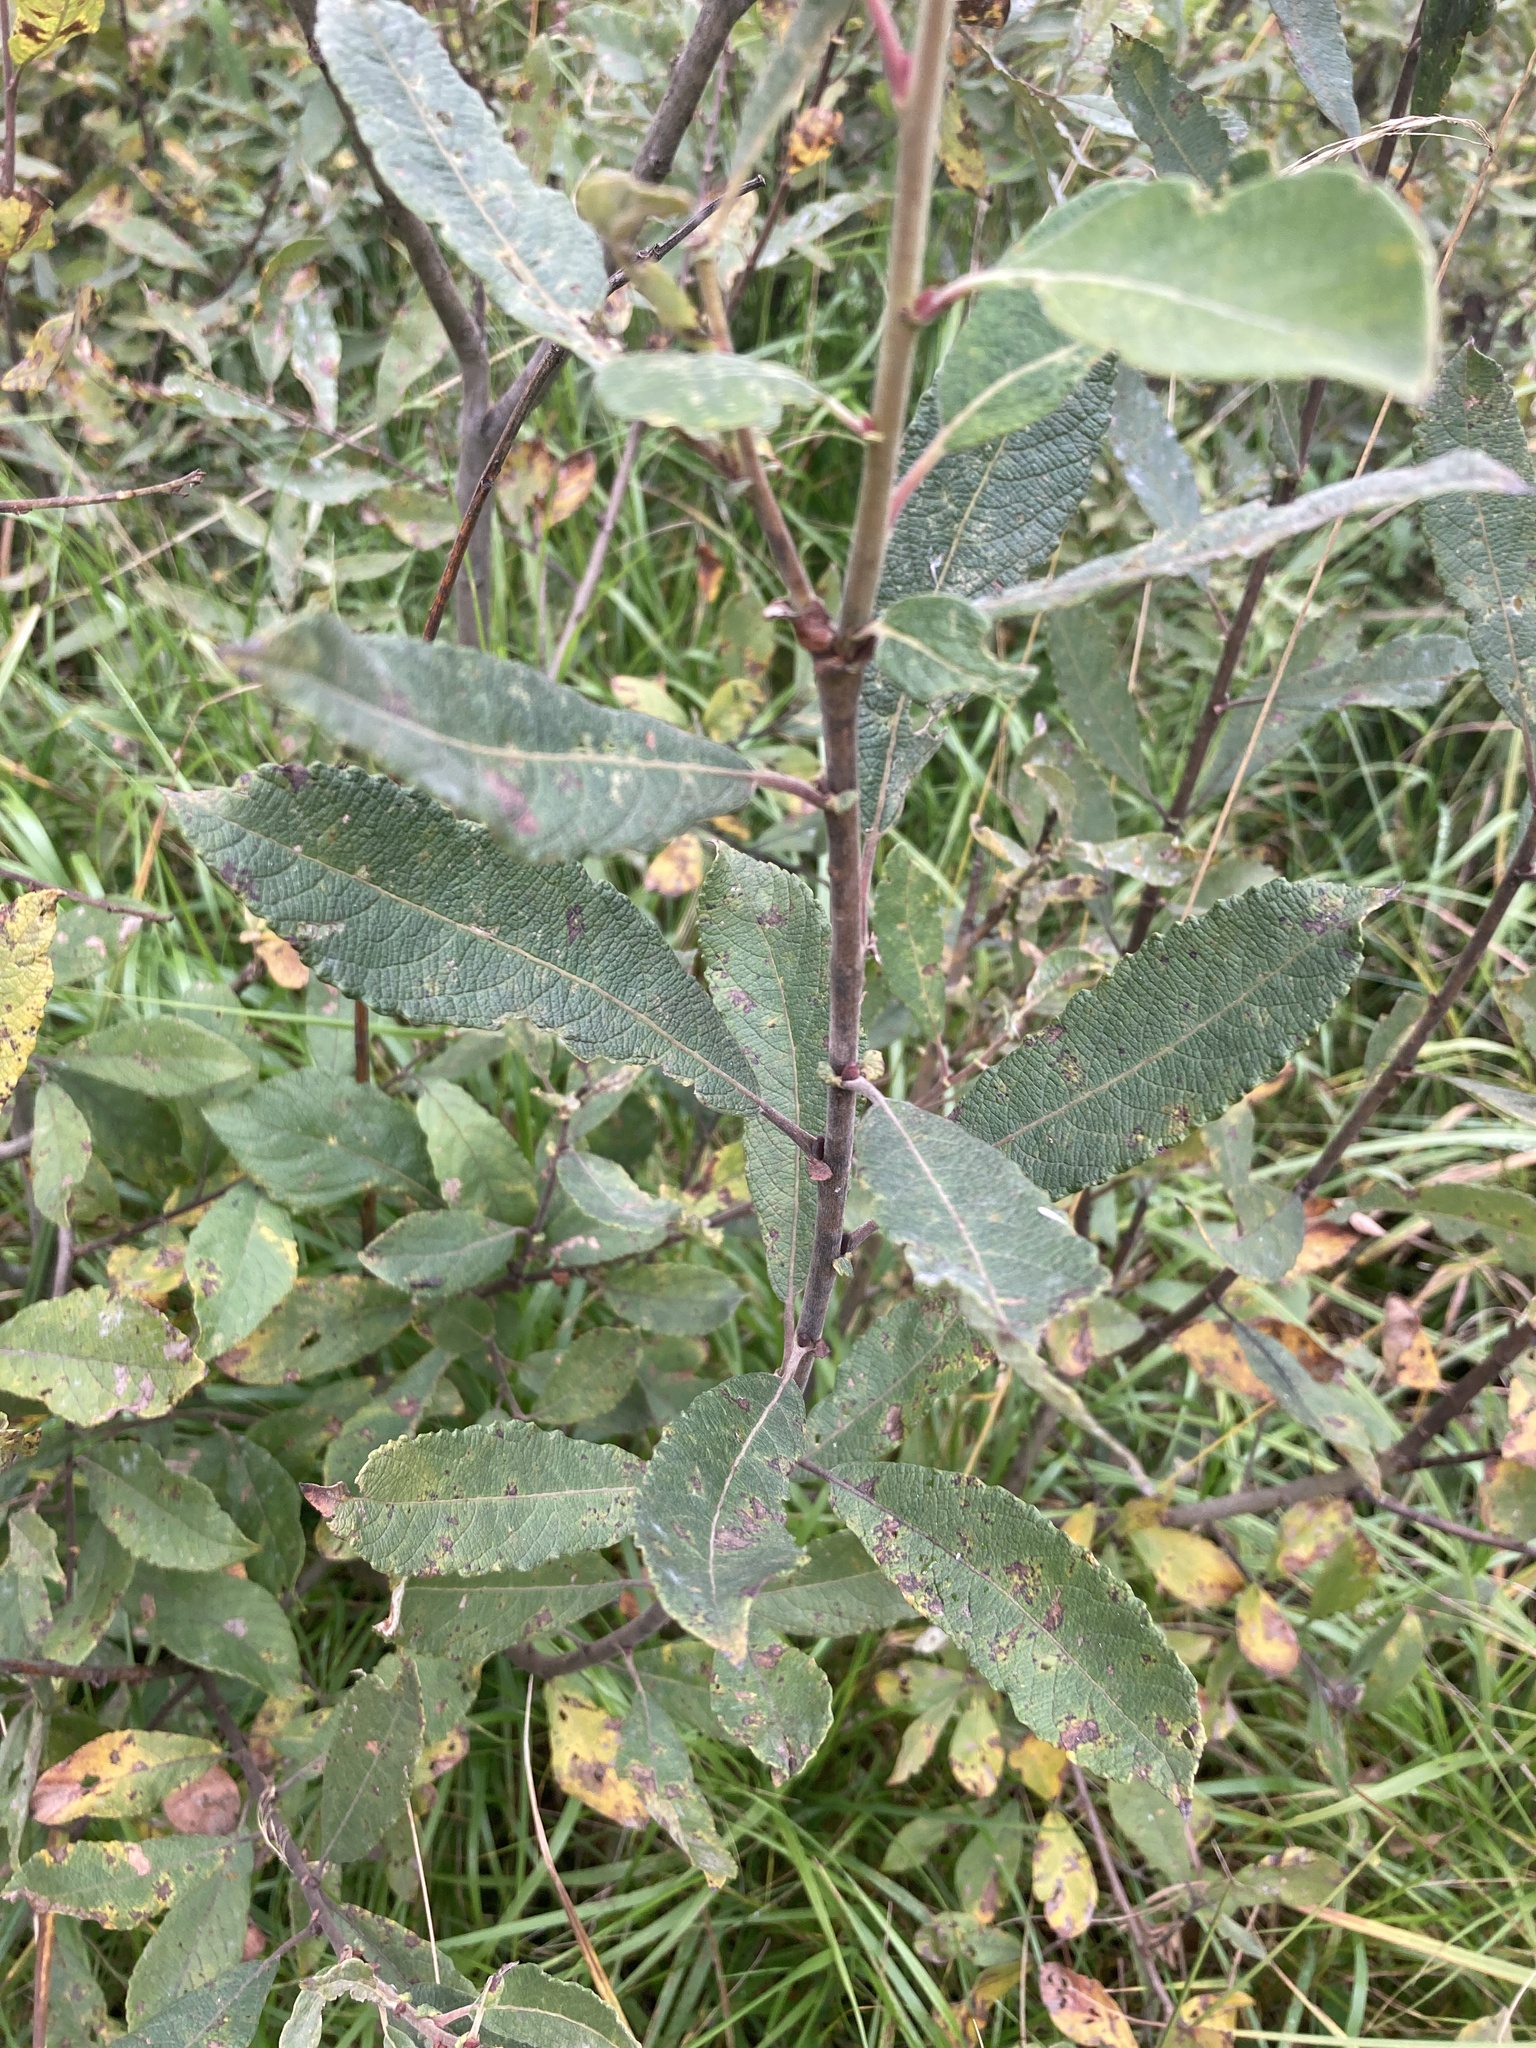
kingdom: Plantae
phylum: Tracheophyta
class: Magnoliopsida
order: Malpighiales
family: Salicaceae
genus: Salix
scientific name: Salix cinerea
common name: Common sallow
